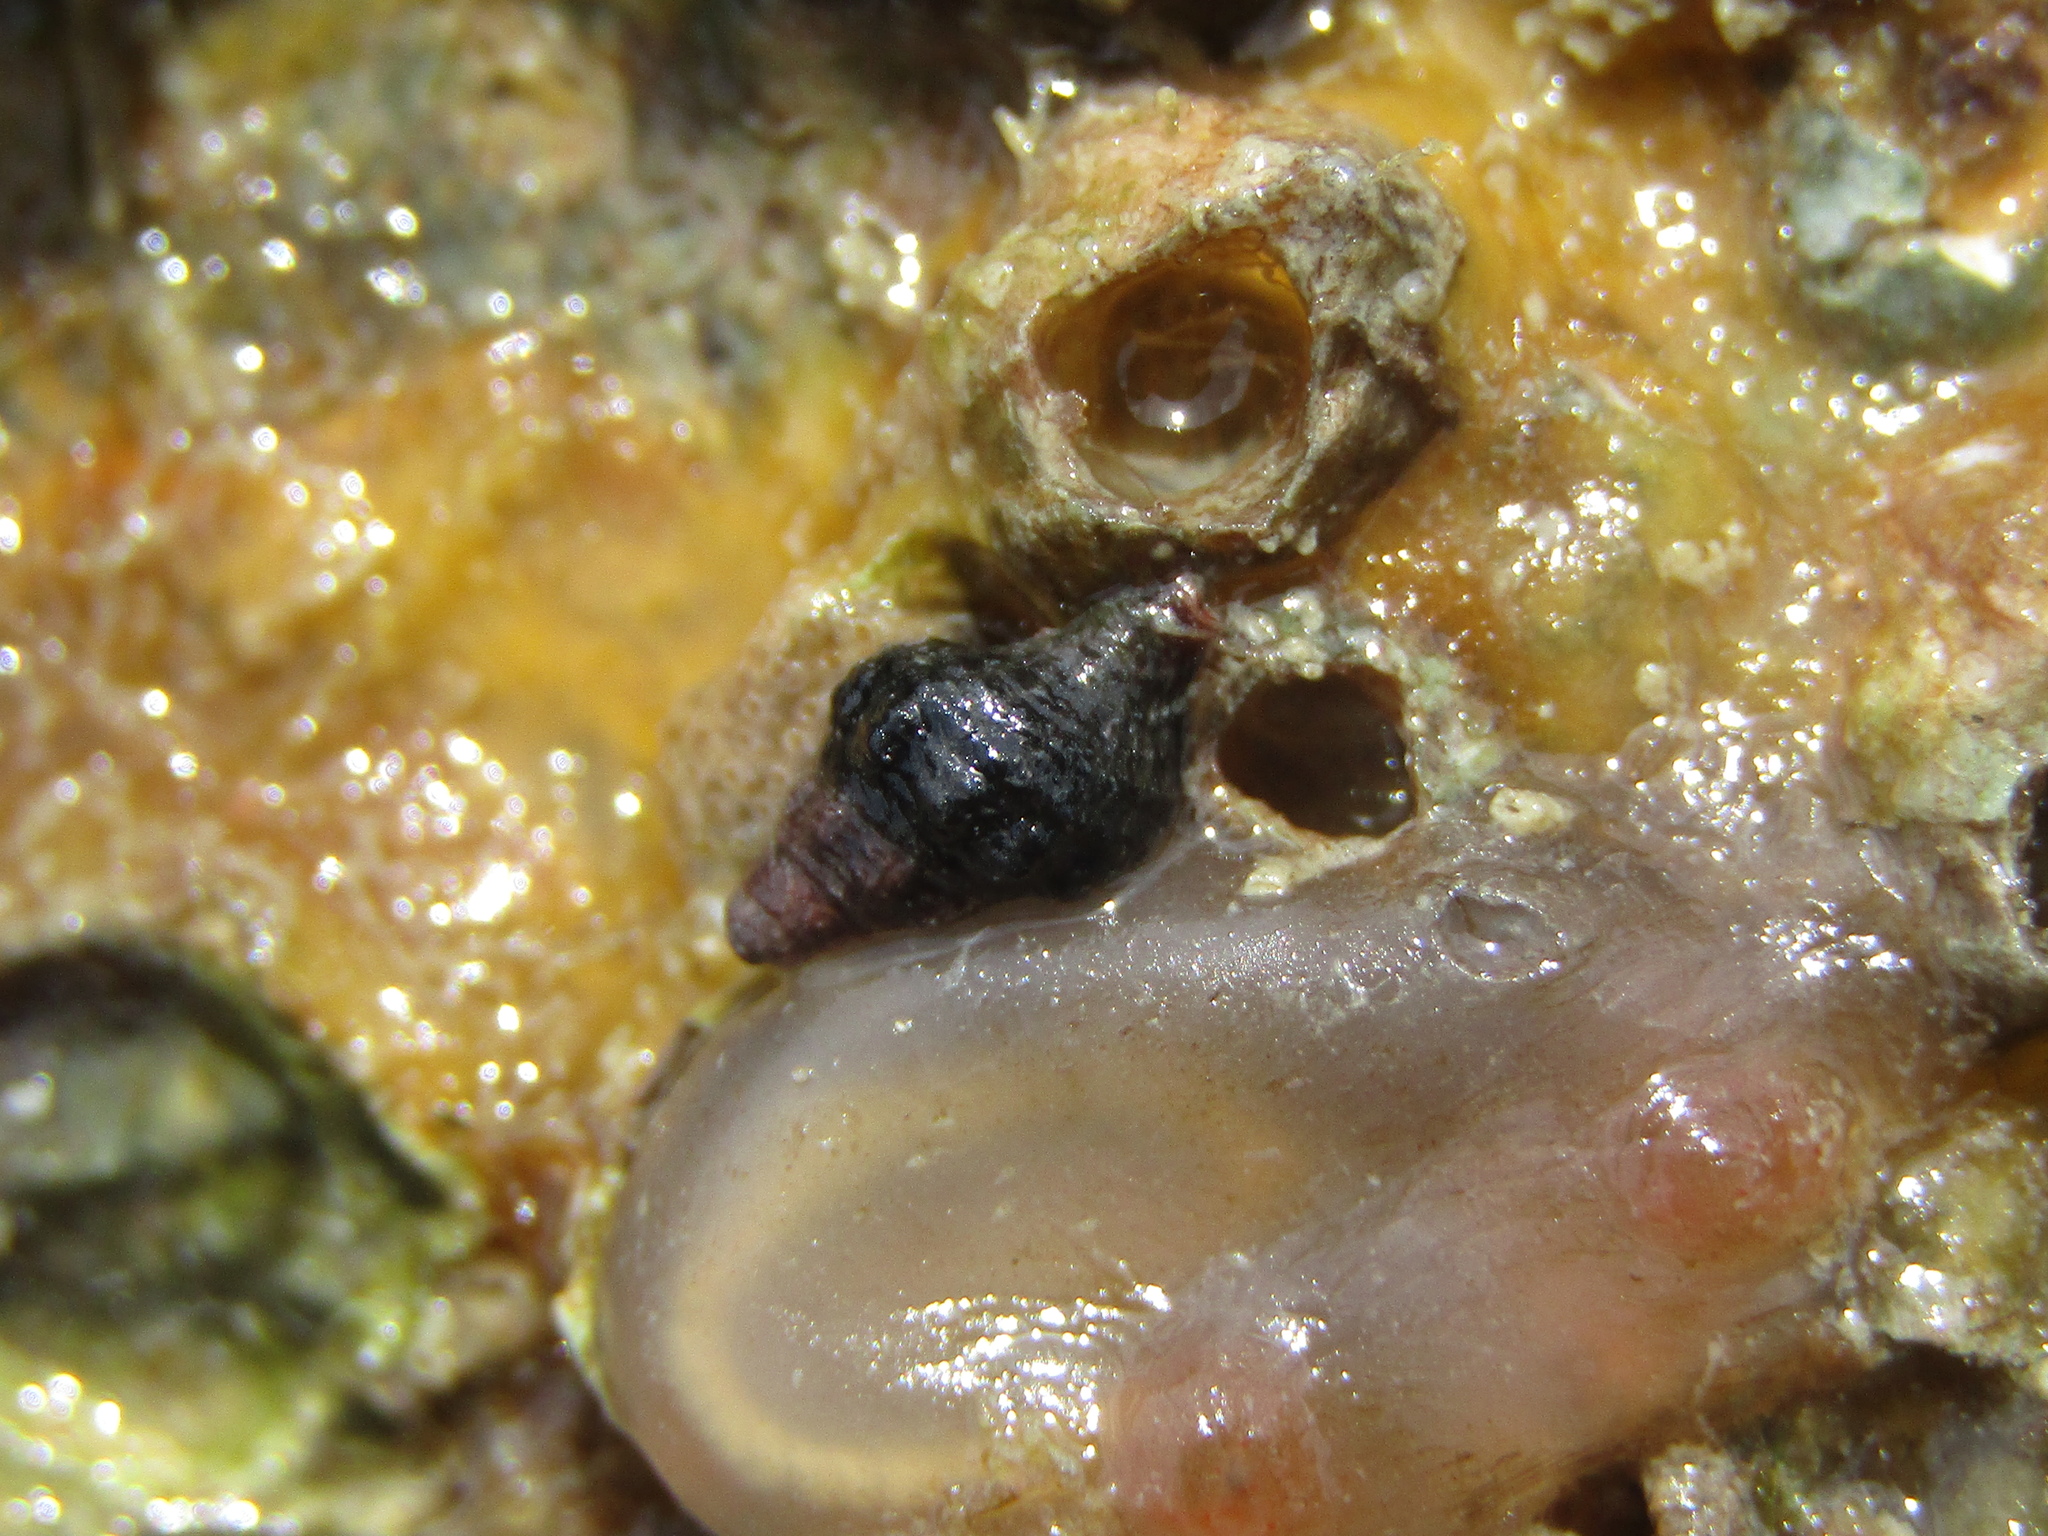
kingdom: Animalia
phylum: Mollusca
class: Gastropoda
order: Neogastropoda
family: Fasciolariidae
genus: Taron
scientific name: Taron dubius
